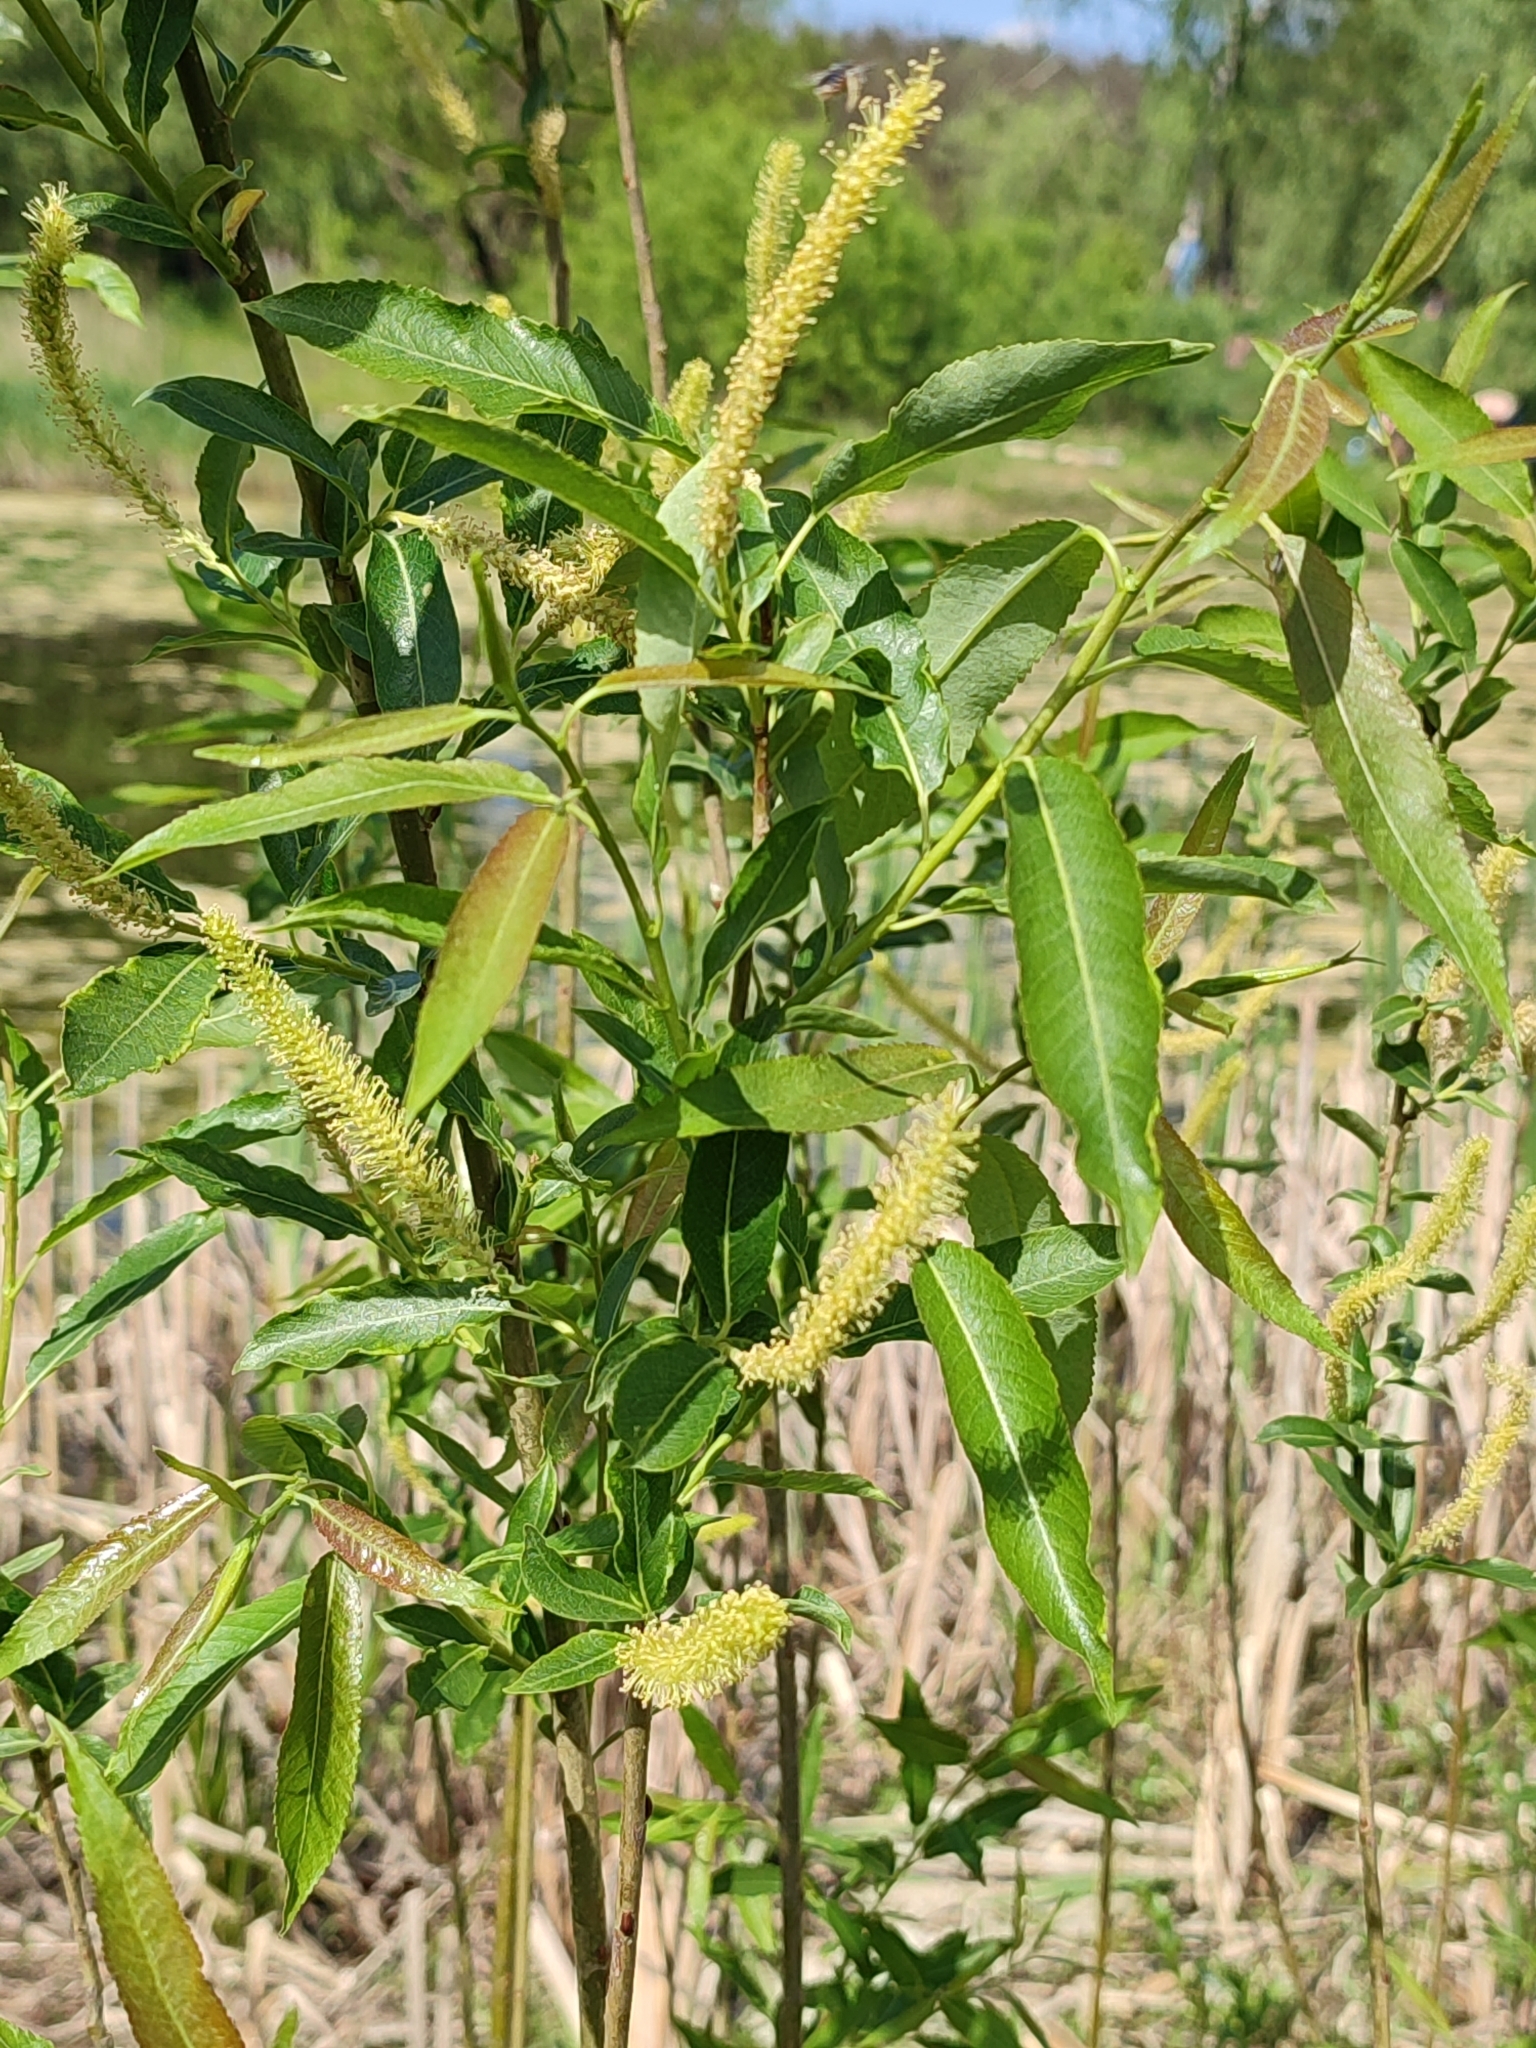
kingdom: Plantae
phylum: Tracheophyta
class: Magnoliopsida
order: Malpighiales
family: Salicaceae
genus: Salix
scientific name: Salix triandra
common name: Almond willow
